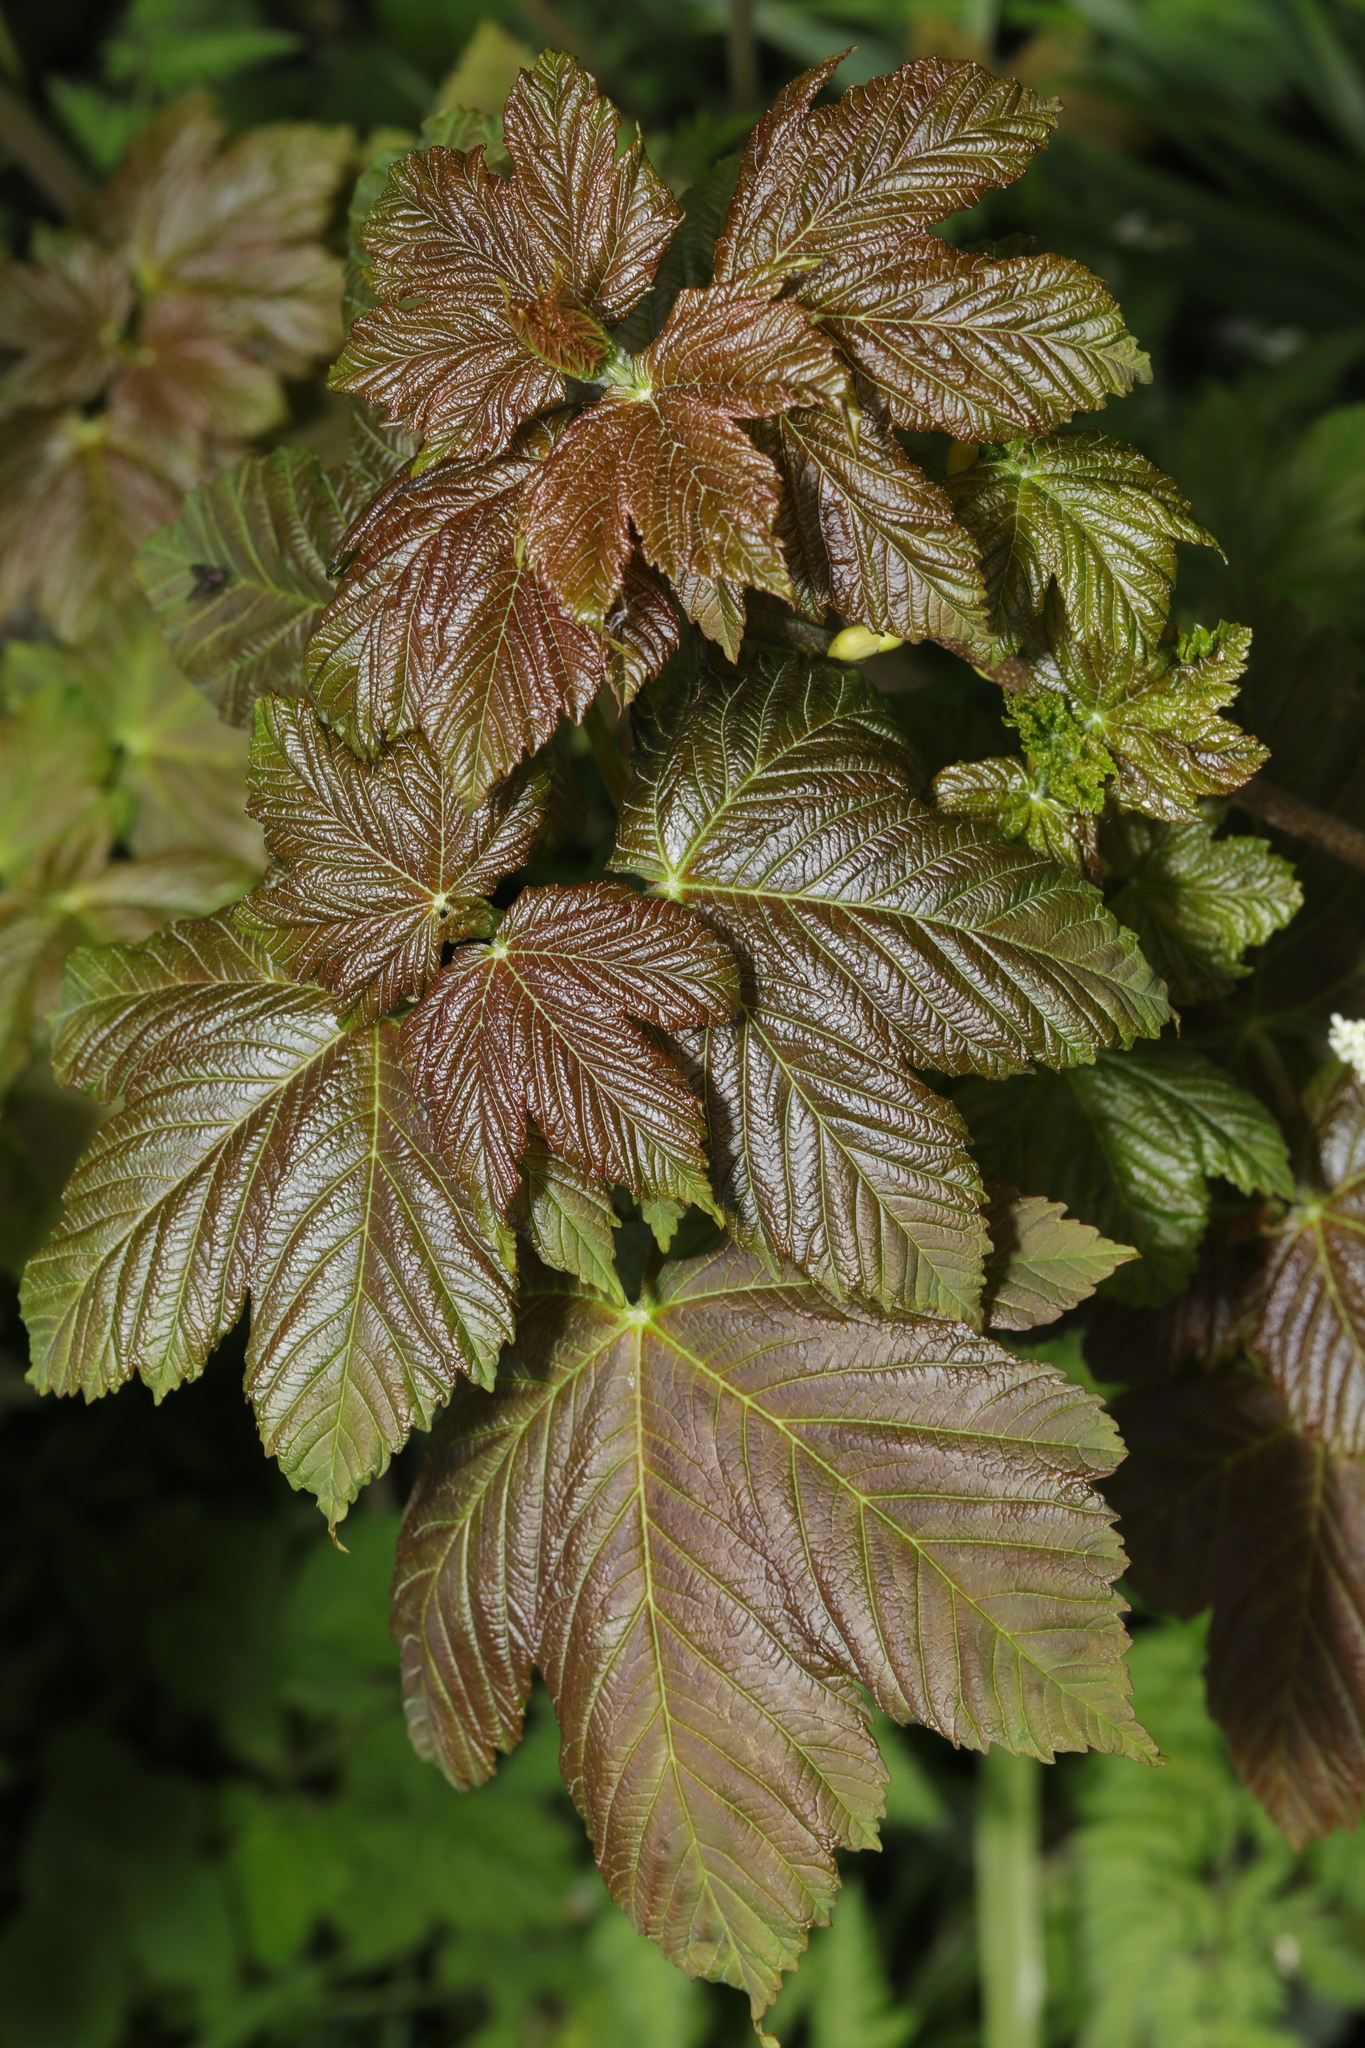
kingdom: Plantae
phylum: Tracheophyta
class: Magnoliopsida
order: Sapindales
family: Sapindaceae
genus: Acer
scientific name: Acer pseudoplatanus
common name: Sycamore
